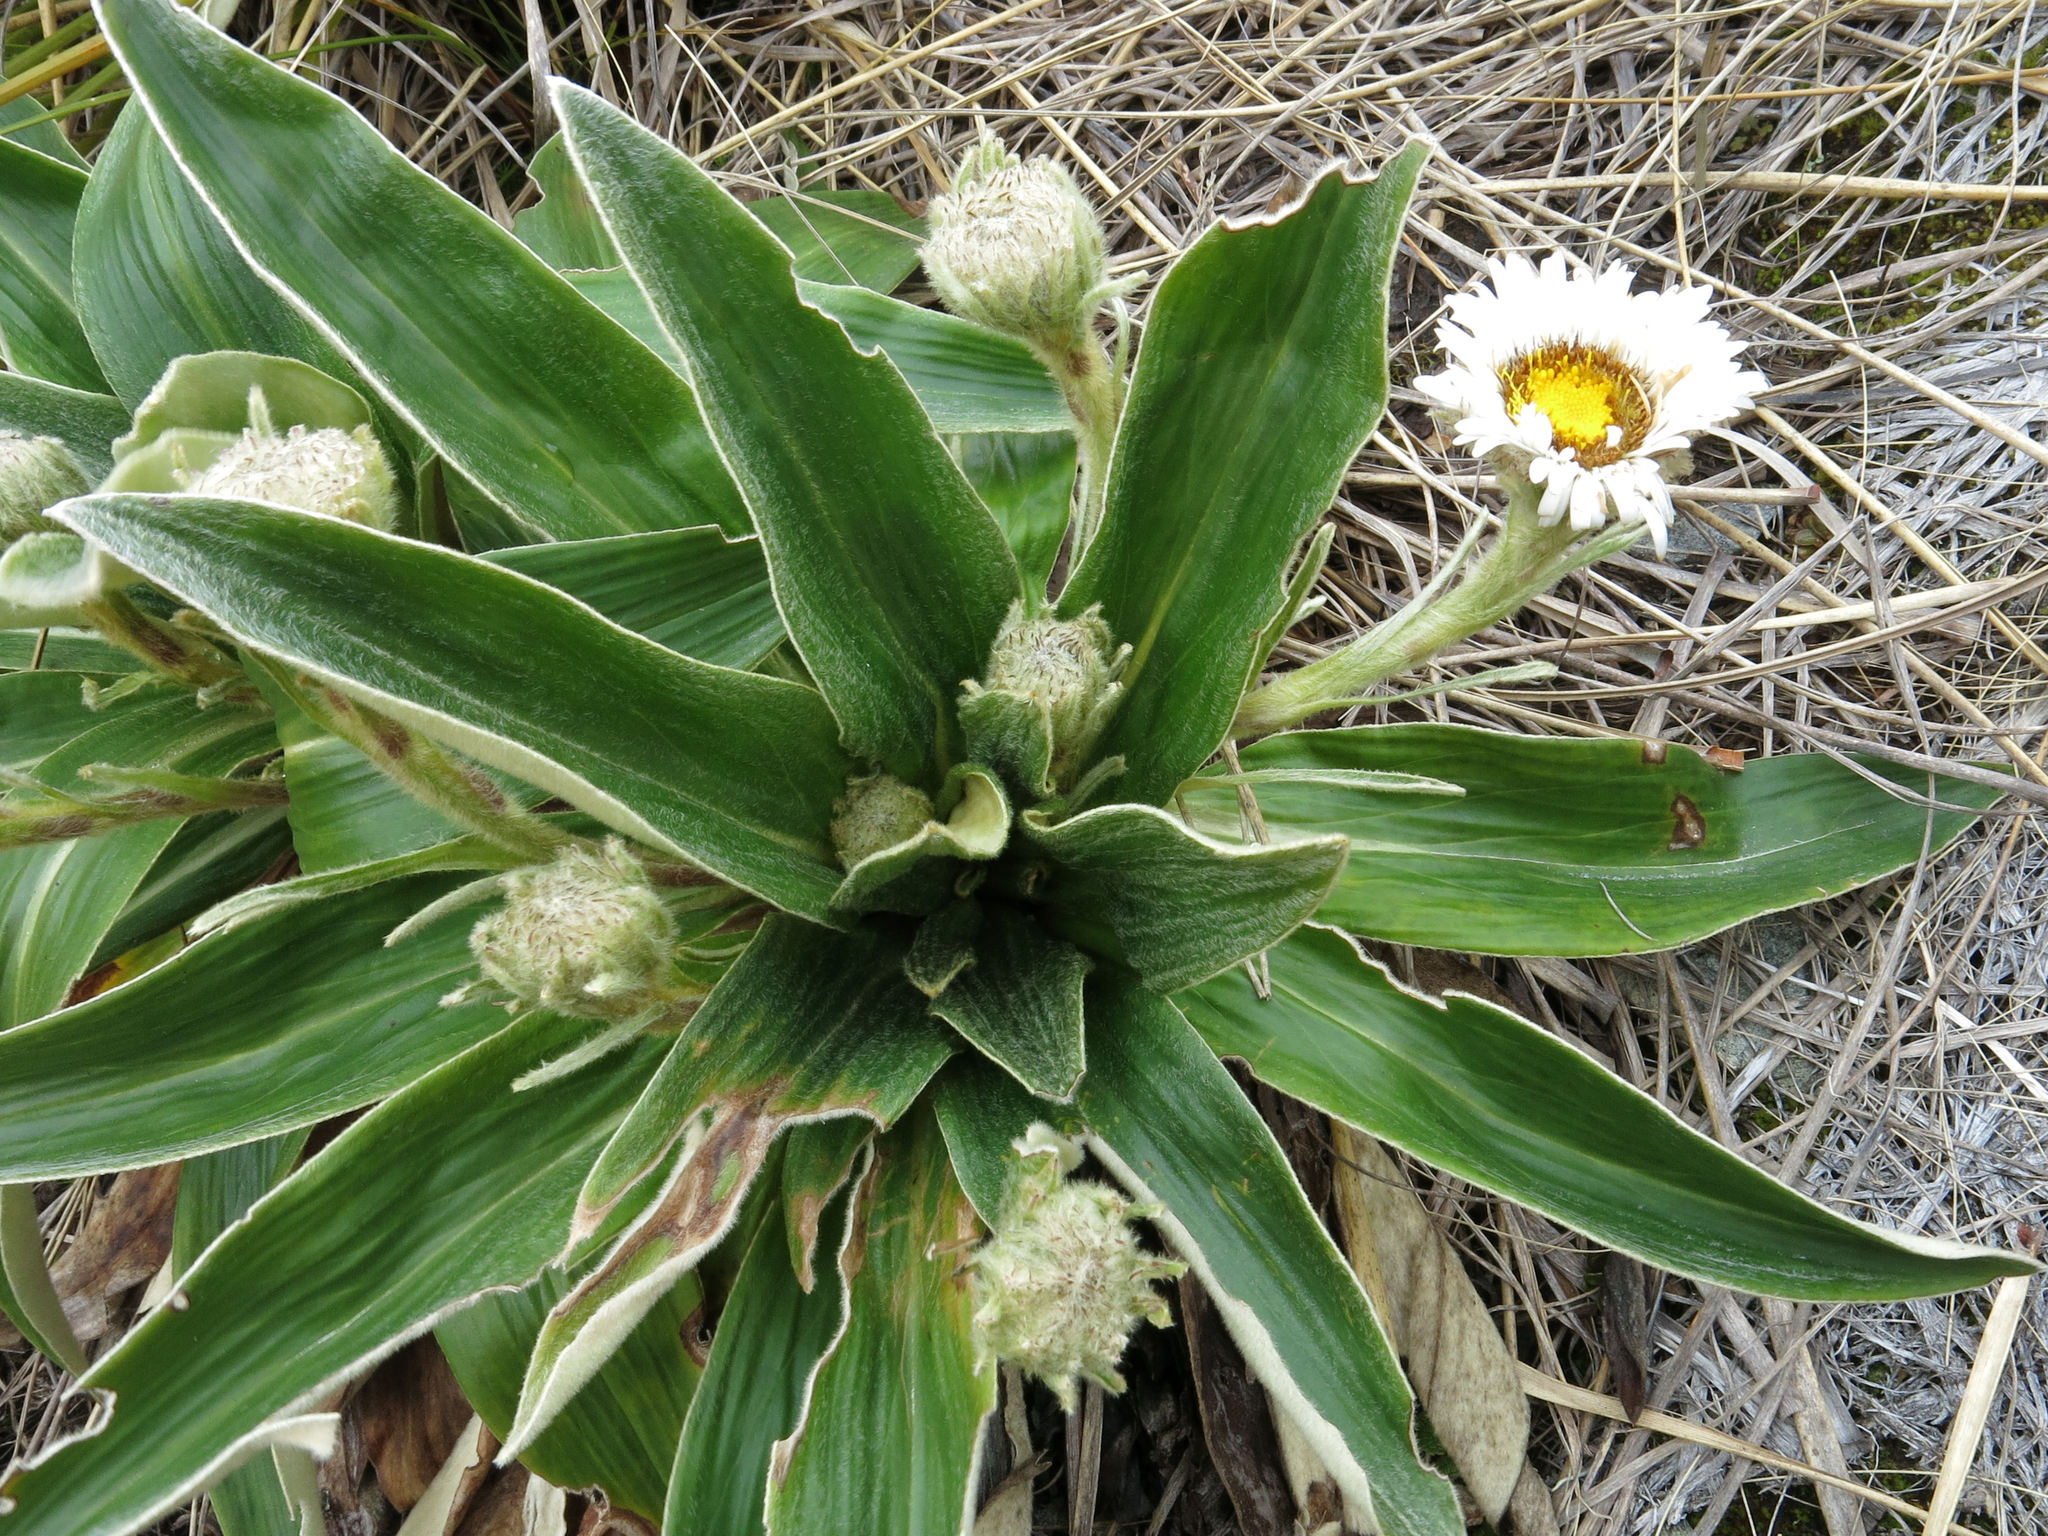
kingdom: Plantae
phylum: Tracheophyta
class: Magnoliopsida
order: Asterales
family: Asteraceae
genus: Celmisia
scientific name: Celmisia verbascifolia
